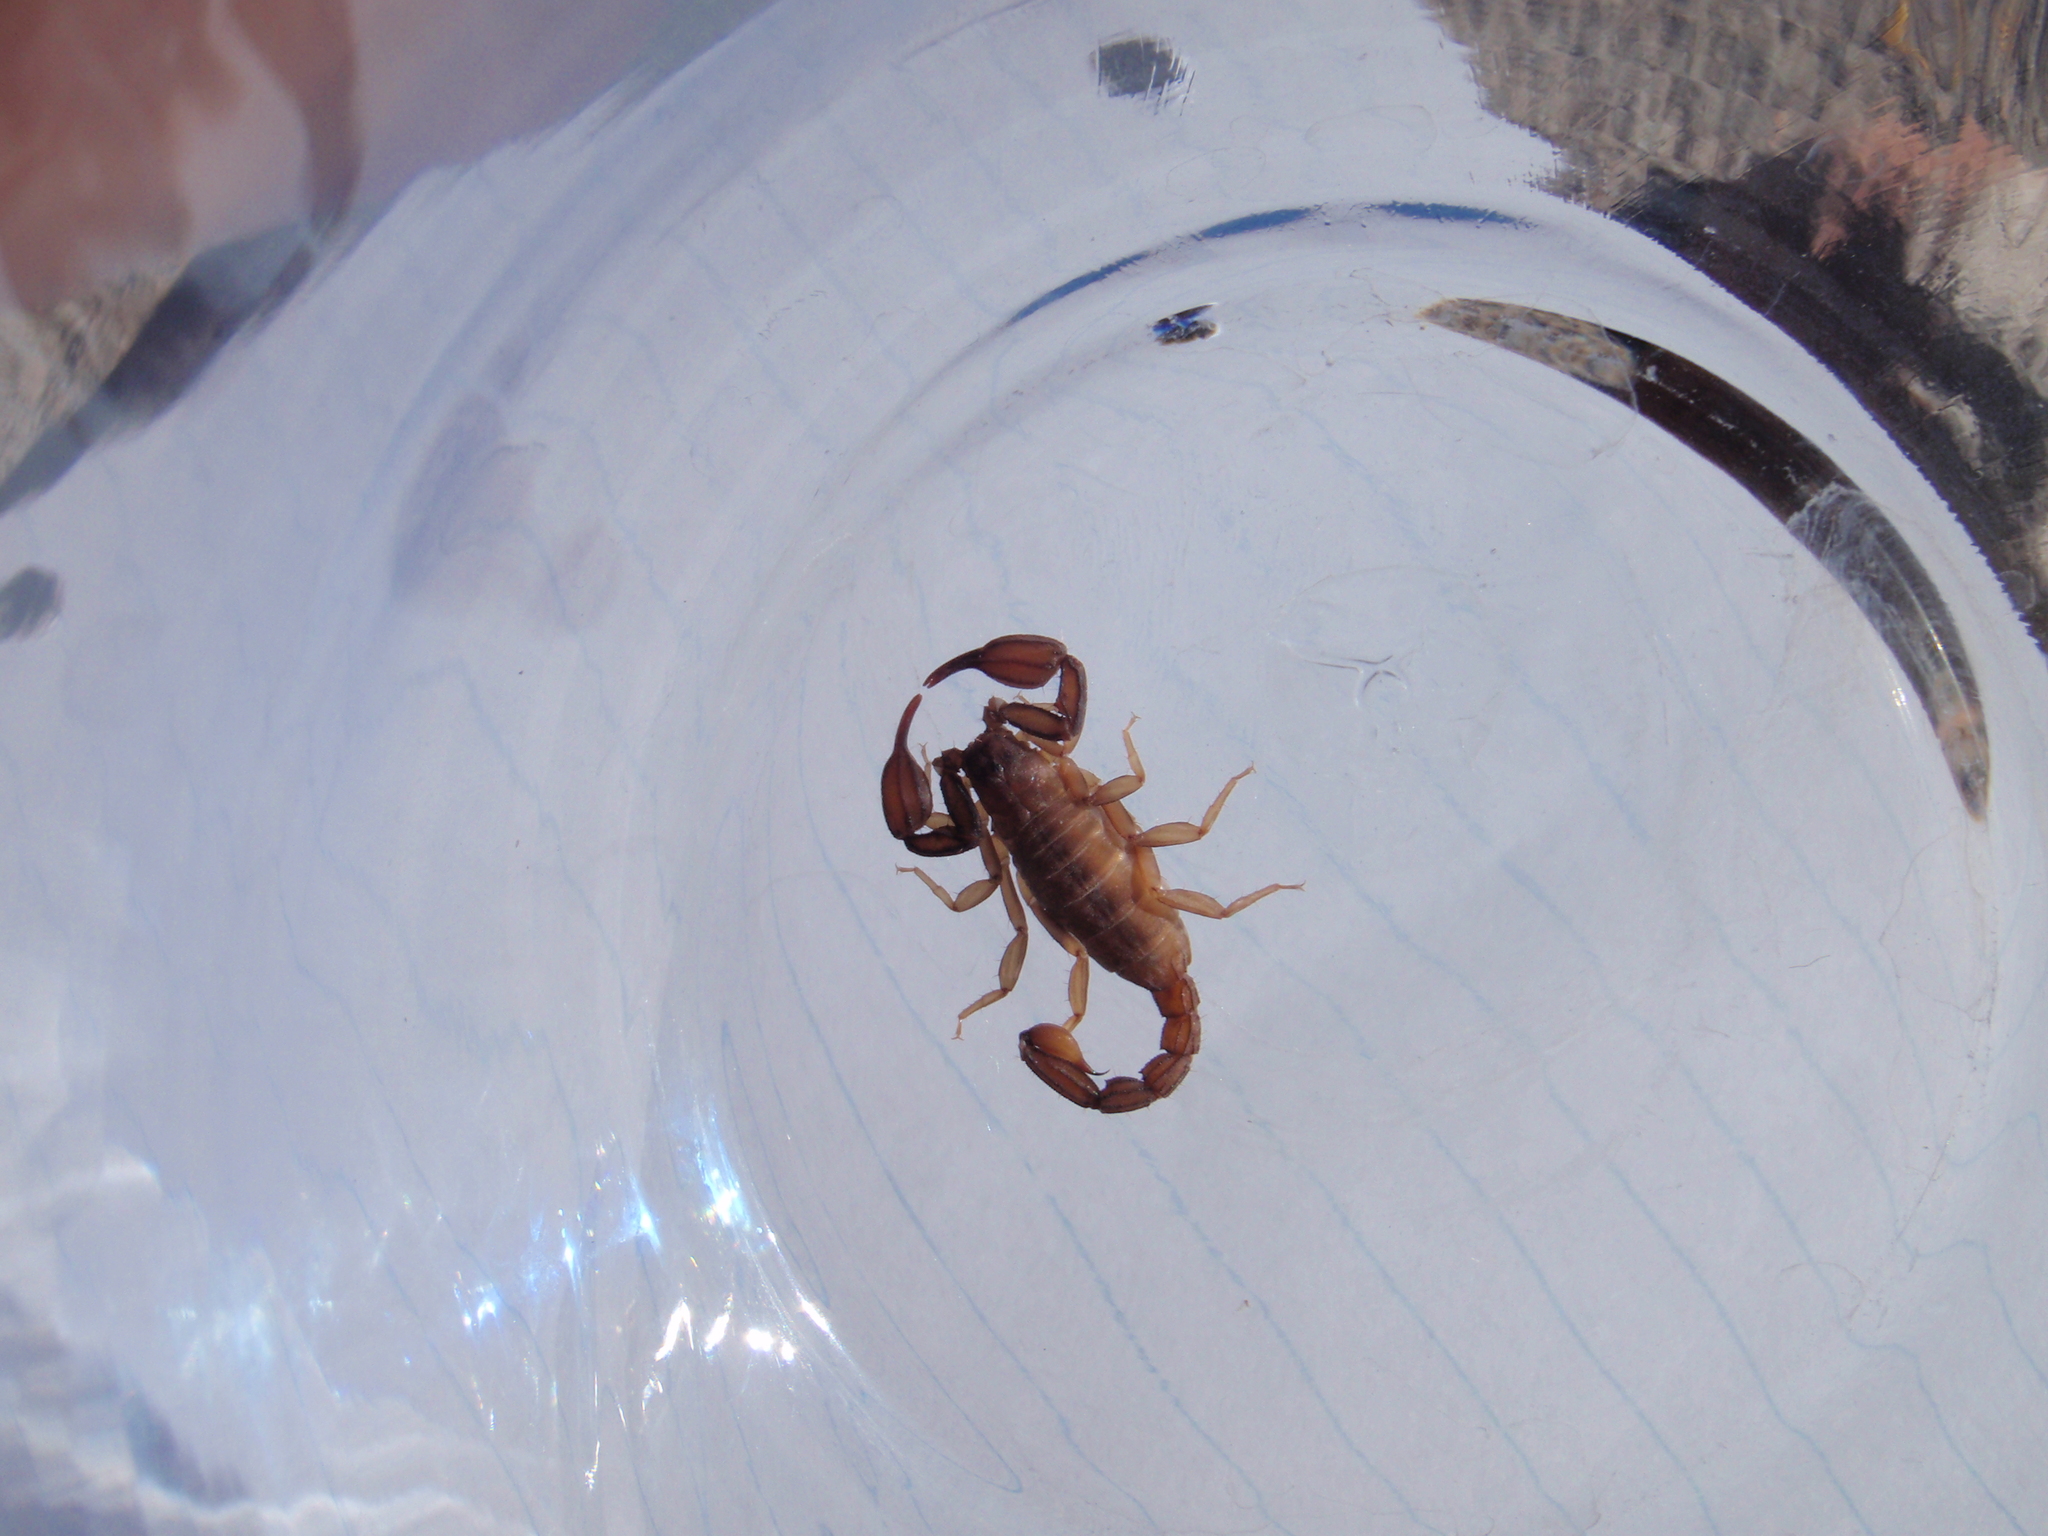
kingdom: Animalia
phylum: Arthropoda
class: Arachnida
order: Scorpiones
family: Vaejovidae
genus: Pseudouroctonus
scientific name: Pseudouroctonus apacheanus
